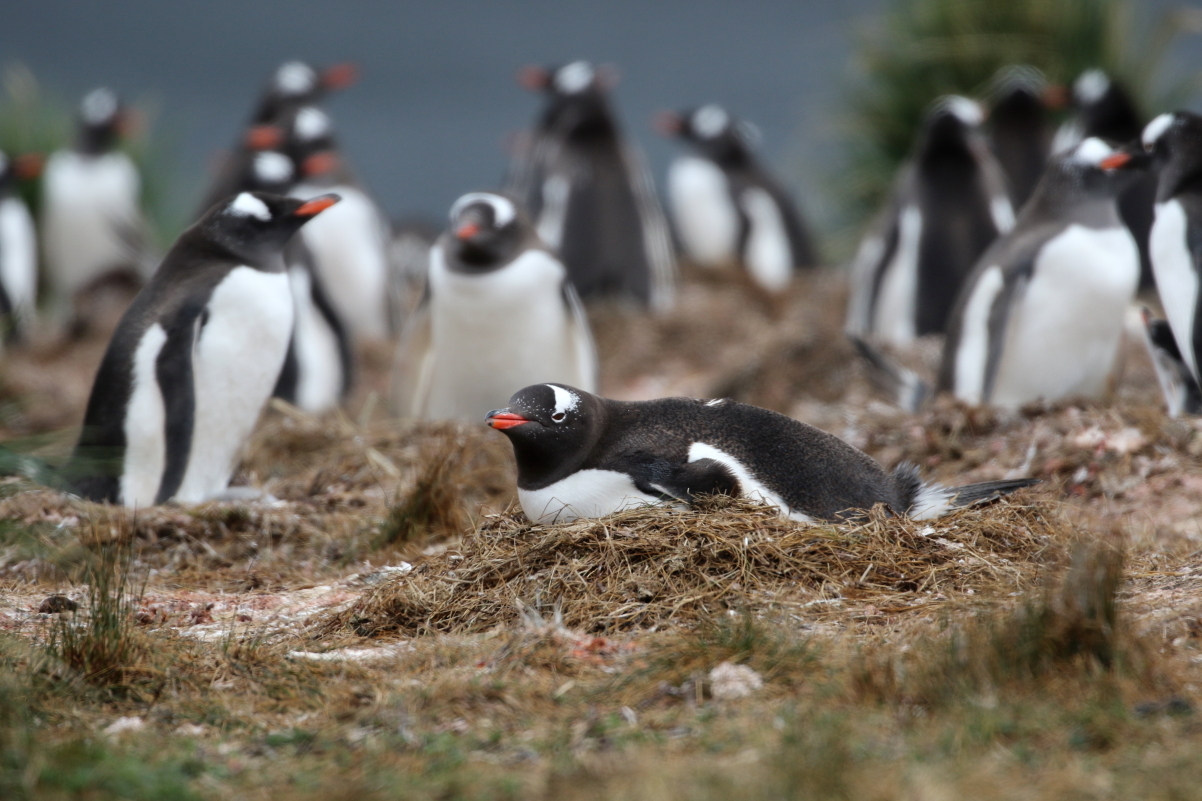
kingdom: Animalia
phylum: Chordata
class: Aves
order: Sphenisciformes
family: Spheniscidae
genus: Pygoscelis
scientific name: Pygoscelis papua
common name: Gentoo penguin
